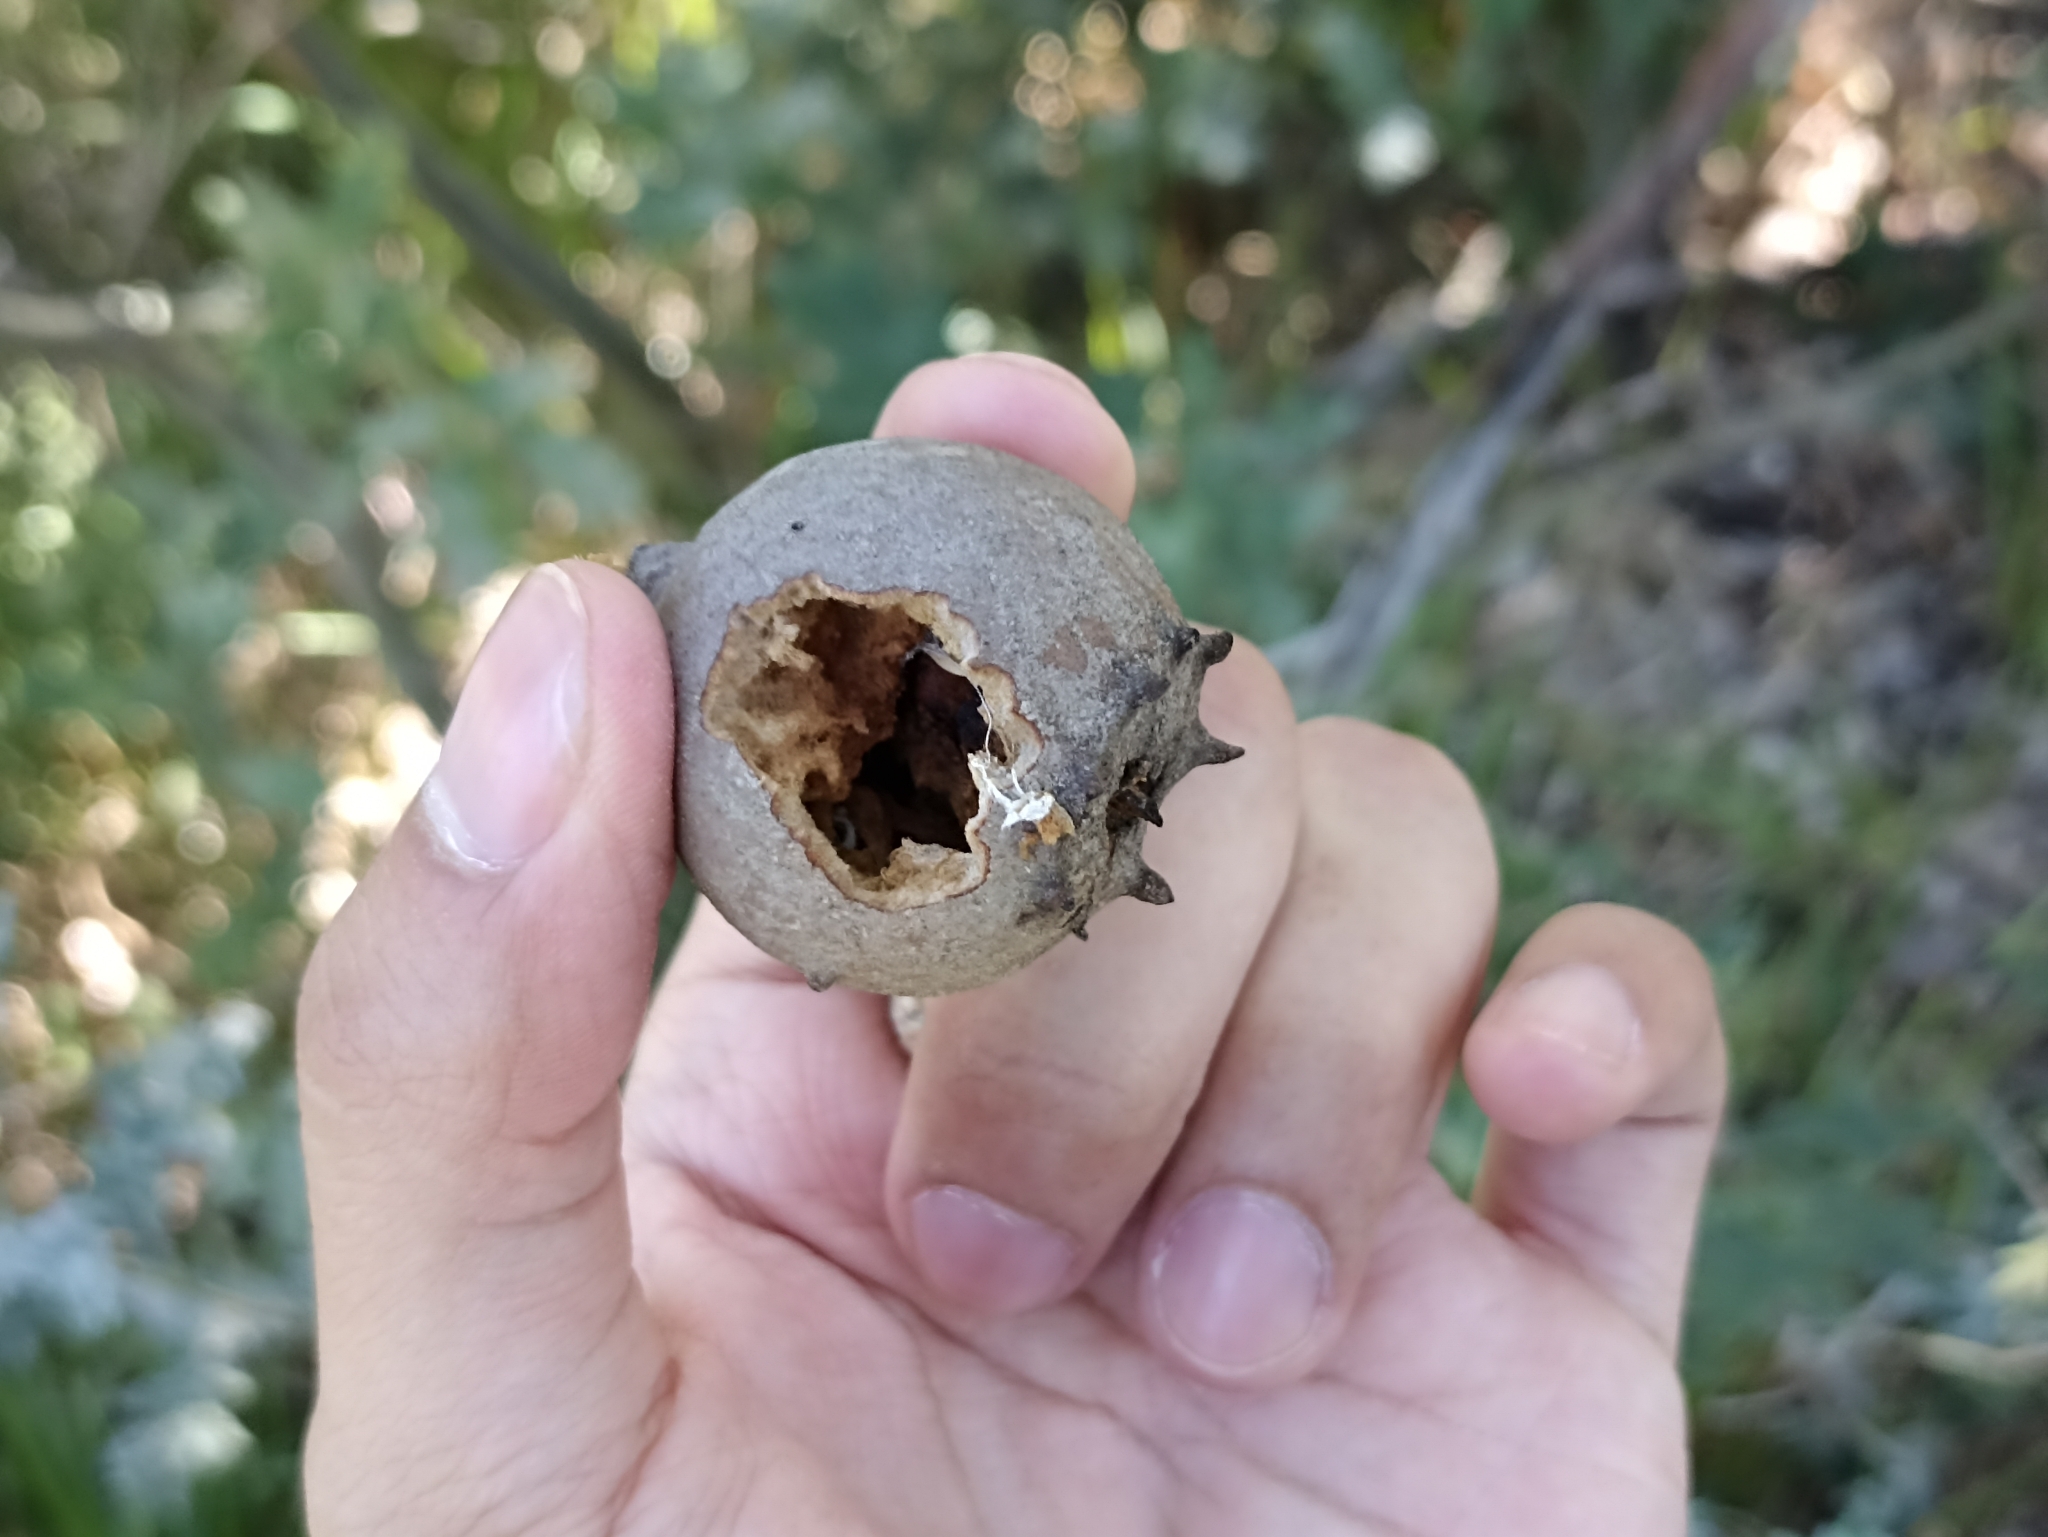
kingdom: Animalia
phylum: Arthropoda
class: Insecta
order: Hymenoptera
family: Cynipidae
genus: Andricus
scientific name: Andricus quercustozae
